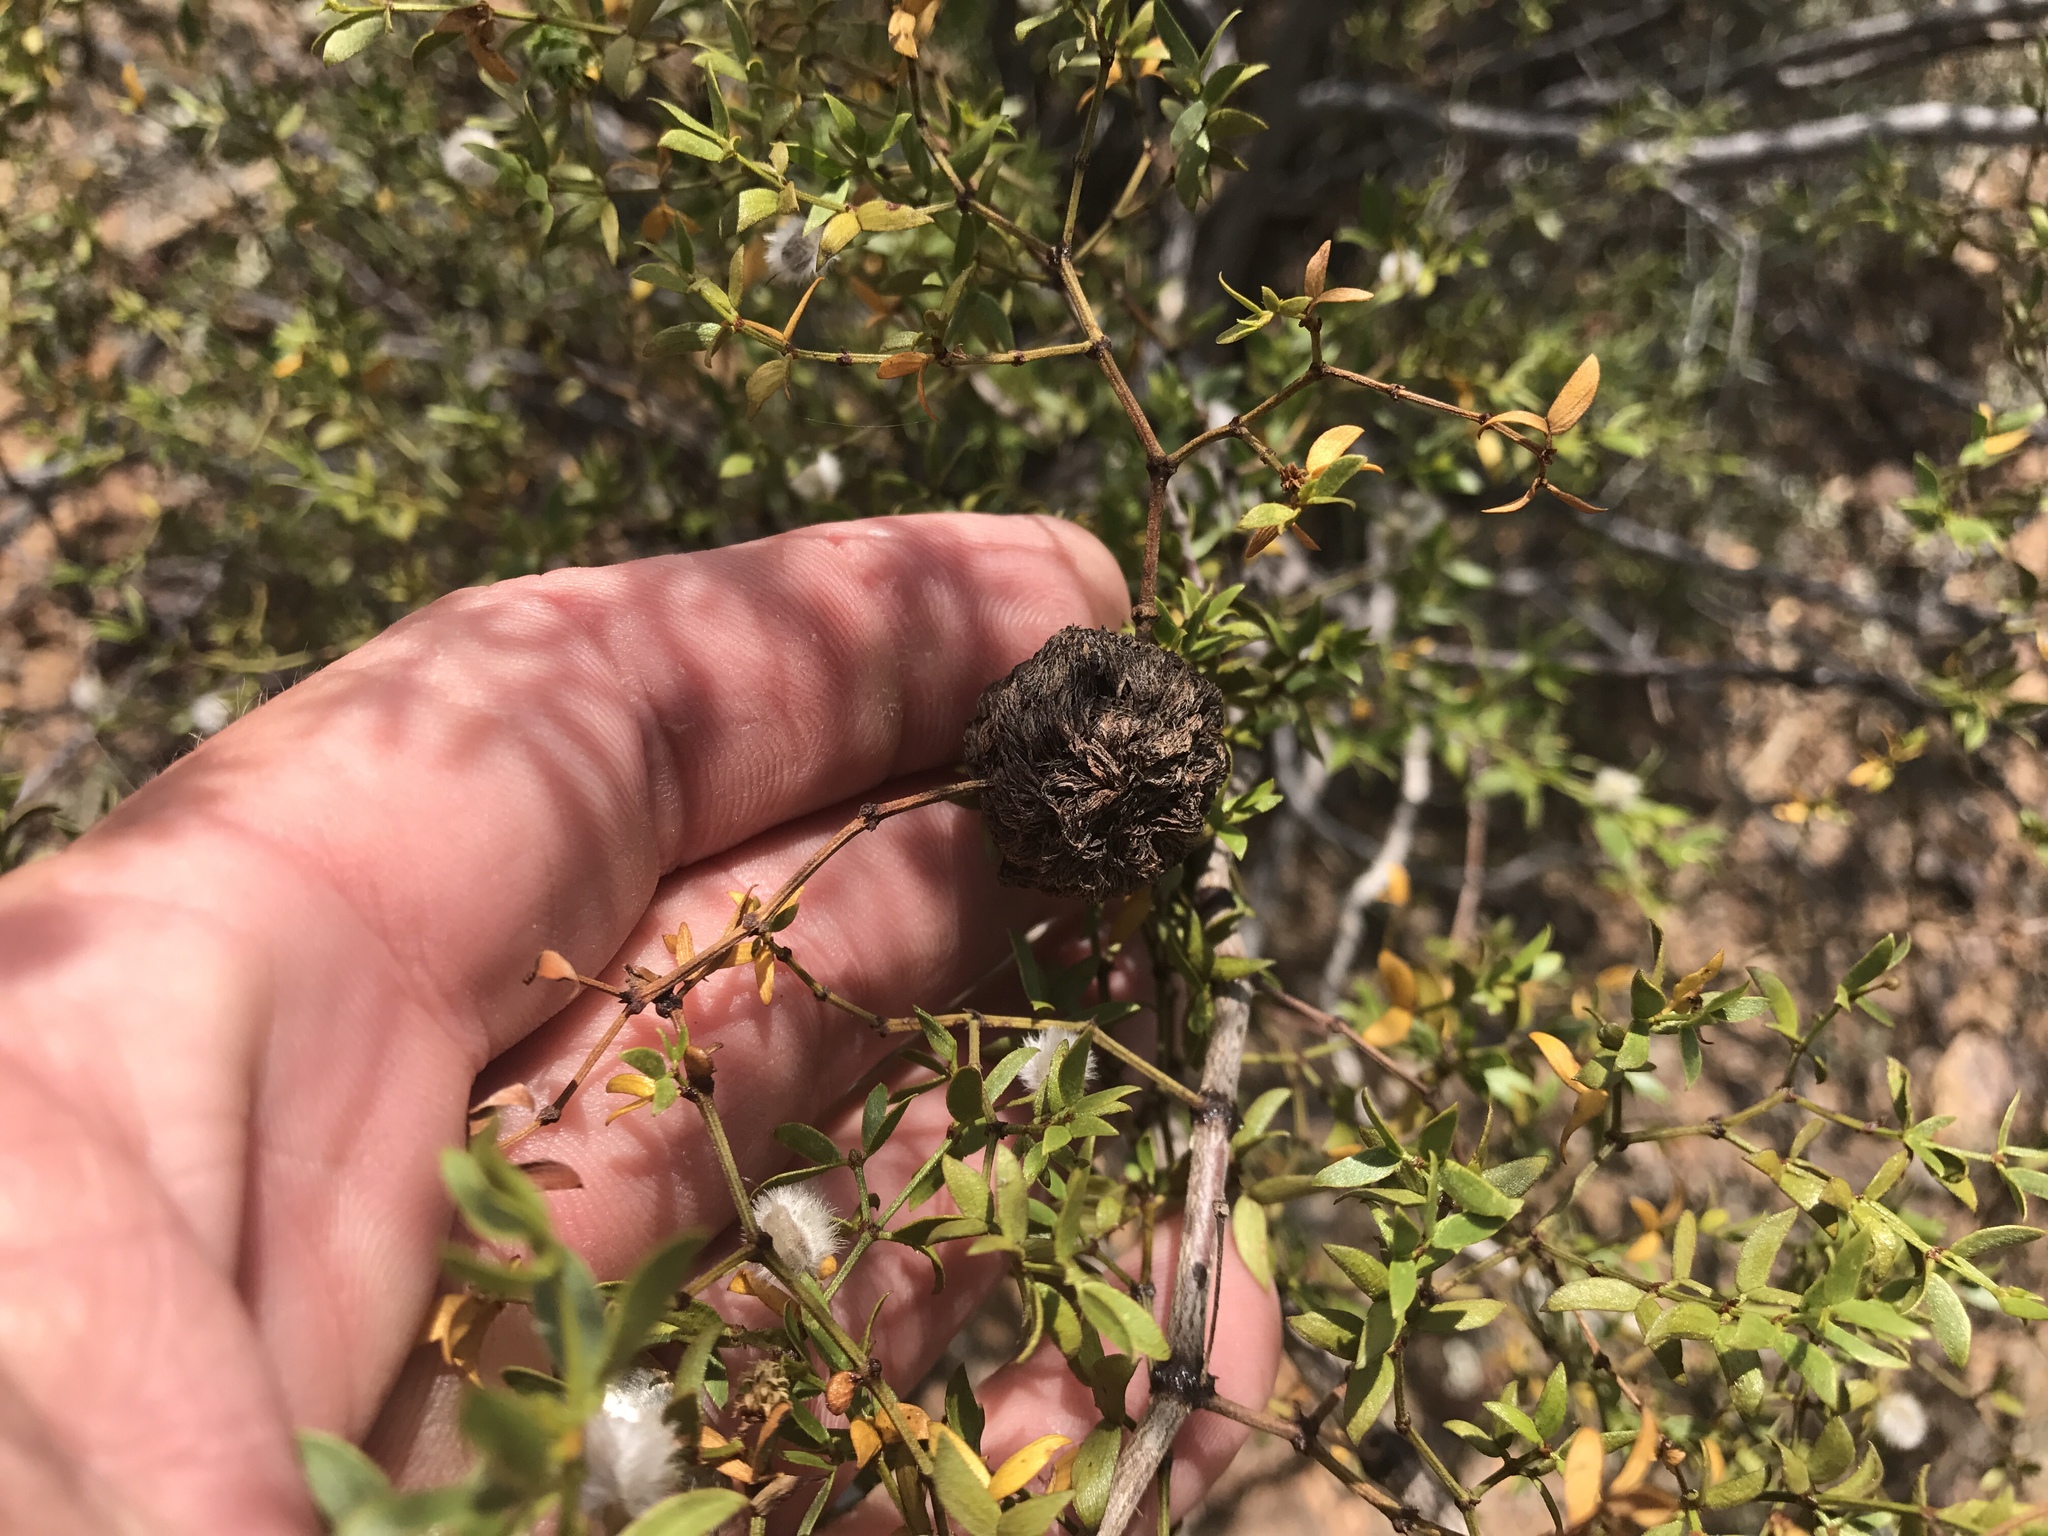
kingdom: Animalia
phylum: Arthropoda
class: Insecta
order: Diptera
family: Cecidomyiidae
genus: Asphondylia
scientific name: Asphondylia auripila
